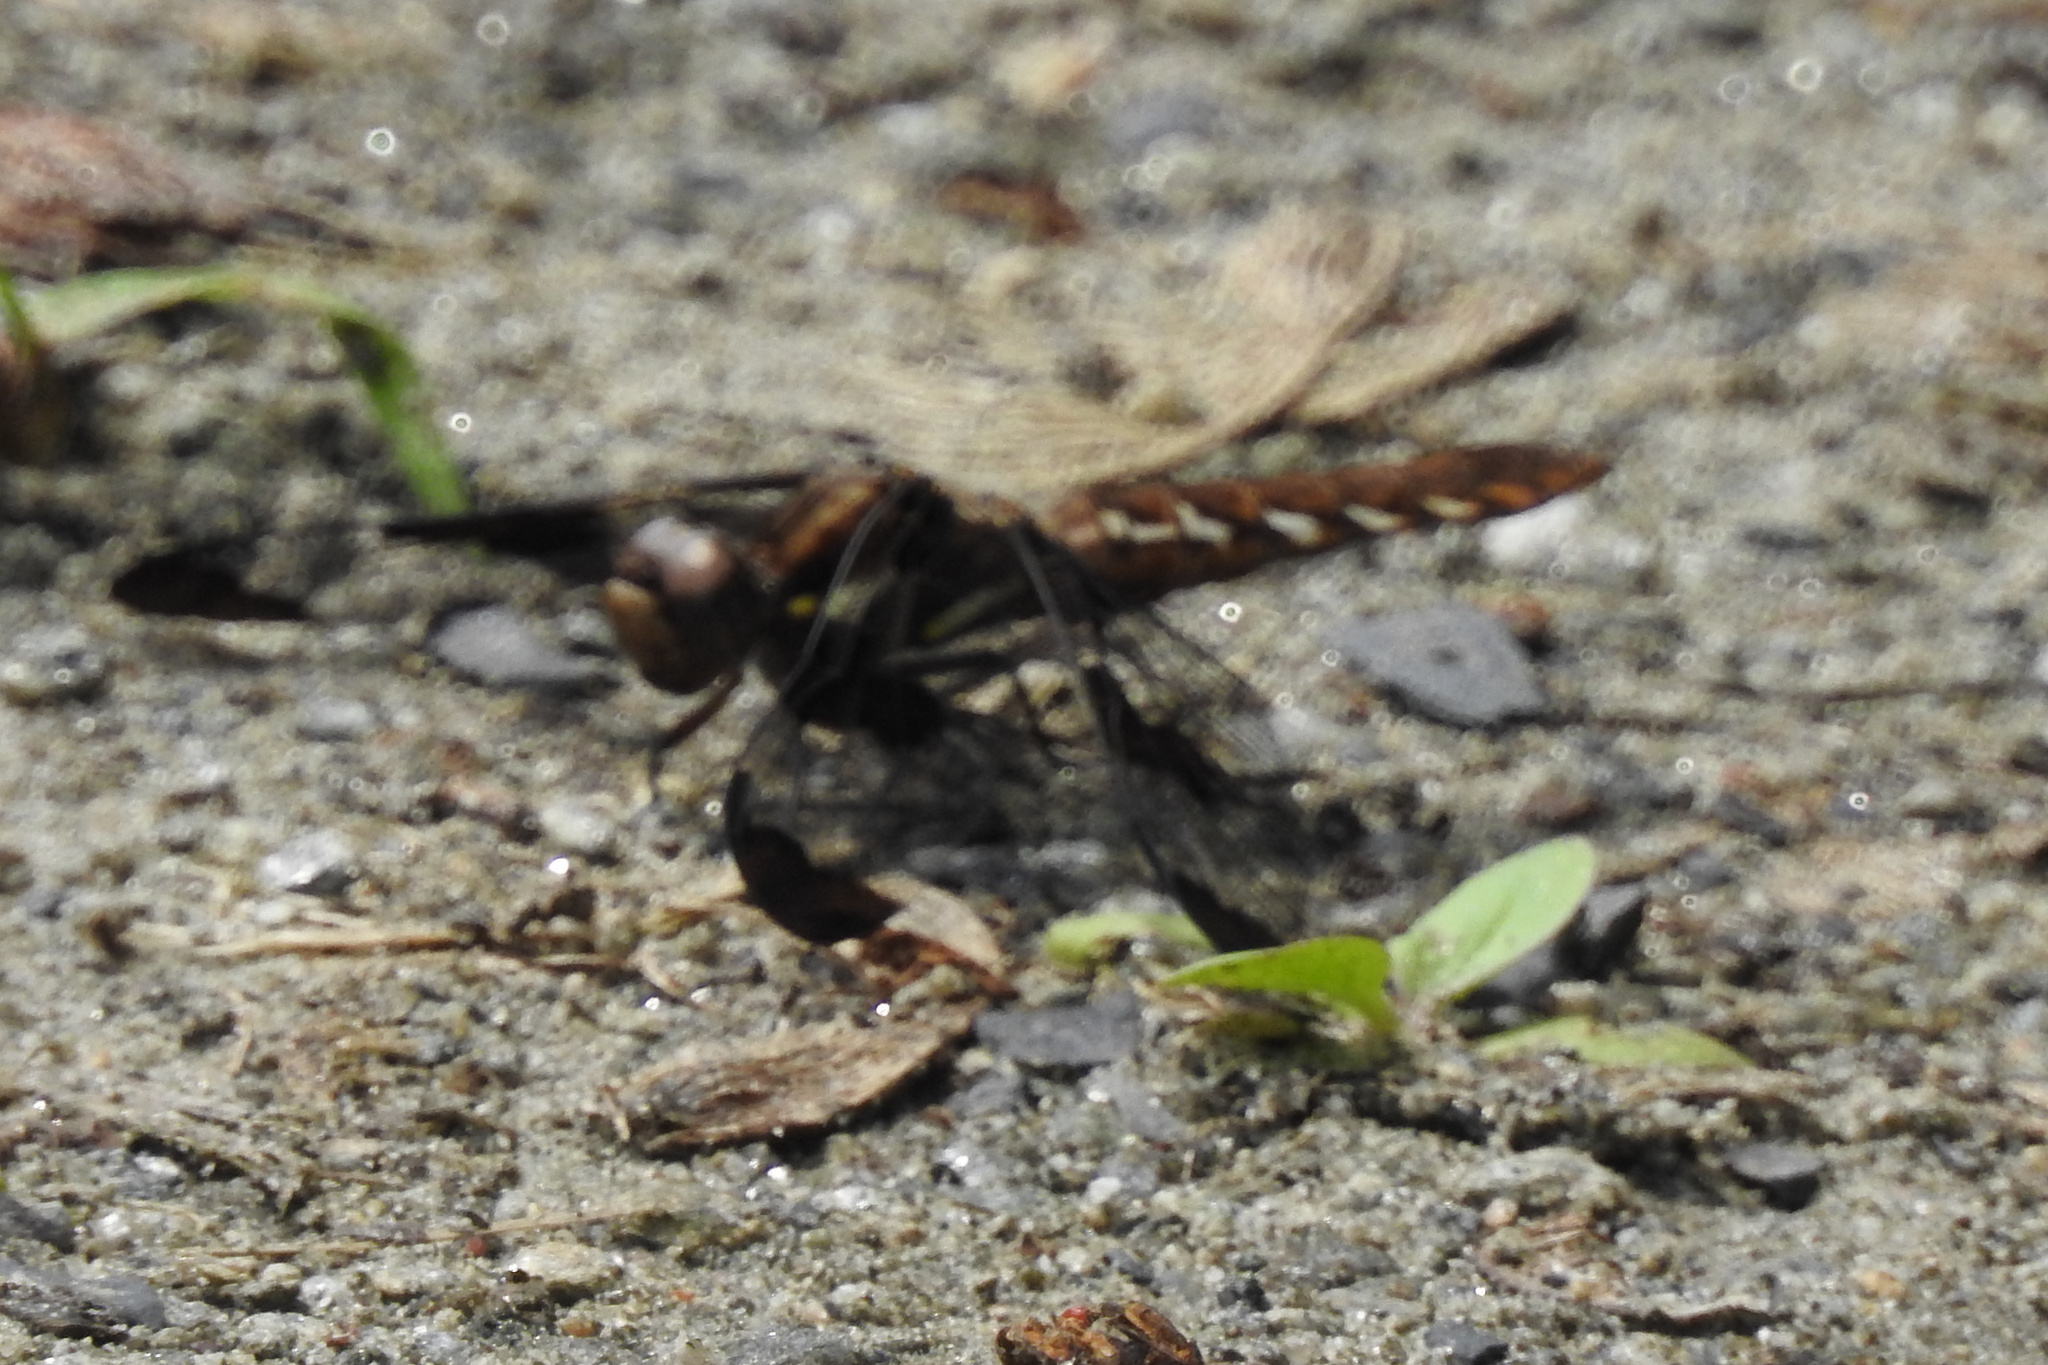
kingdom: Animalia
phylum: Arthropoda
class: Insecta
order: Odonata
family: Libellulidae
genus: Plathemis
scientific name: Plathemis lydia
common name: Common whitetail
